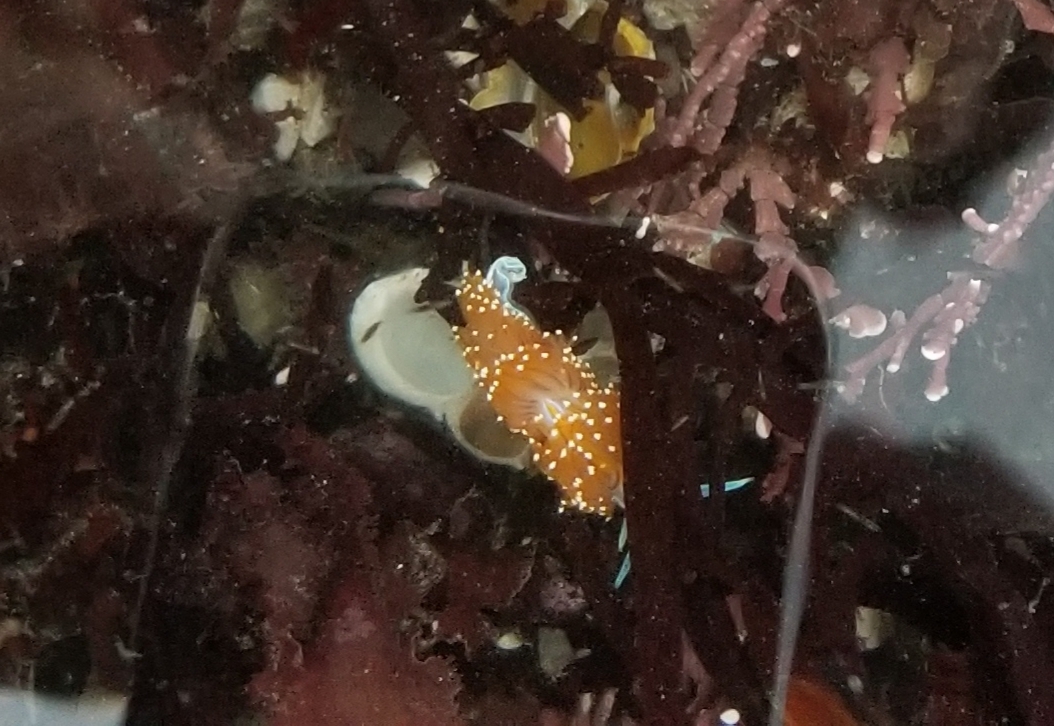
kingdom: Animalia
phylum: Mollusca
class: Gastropoda
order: Nudibranchia
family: Myrrhinidae
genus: Hermissenda
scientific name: Hermissenda opalescens
